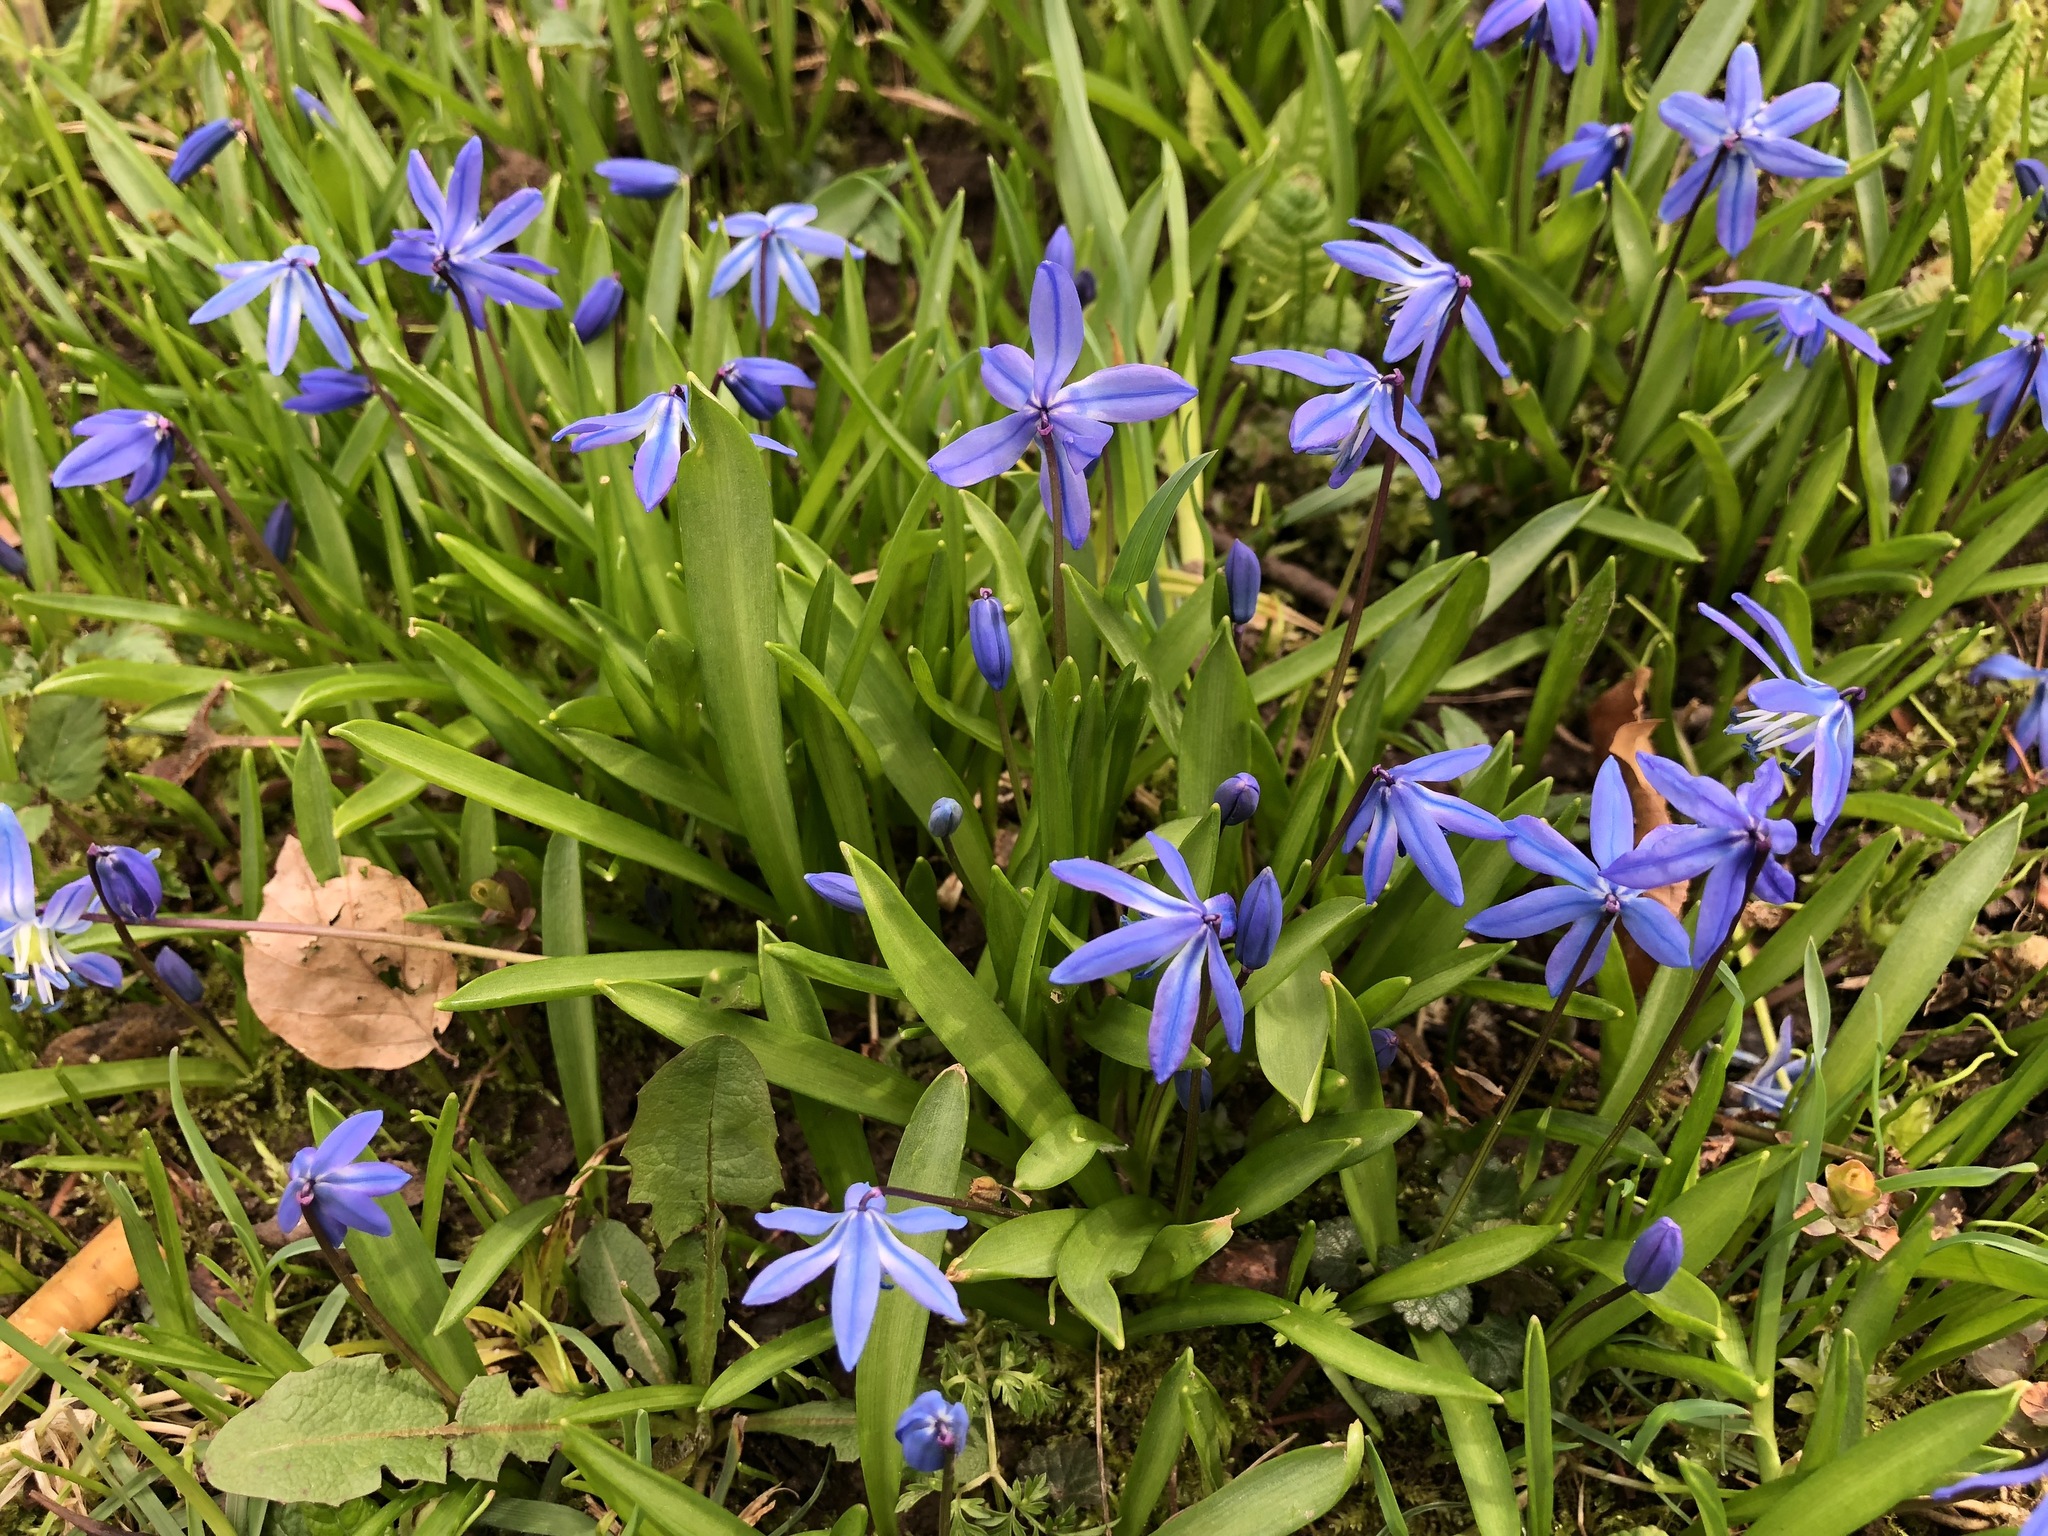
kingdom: Plantae
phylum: Tracheophyta
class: Liliopsida
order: Asparagales
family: Asparagaceae
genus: Scilla
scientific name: Scilla siberica
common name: Siberian squill
